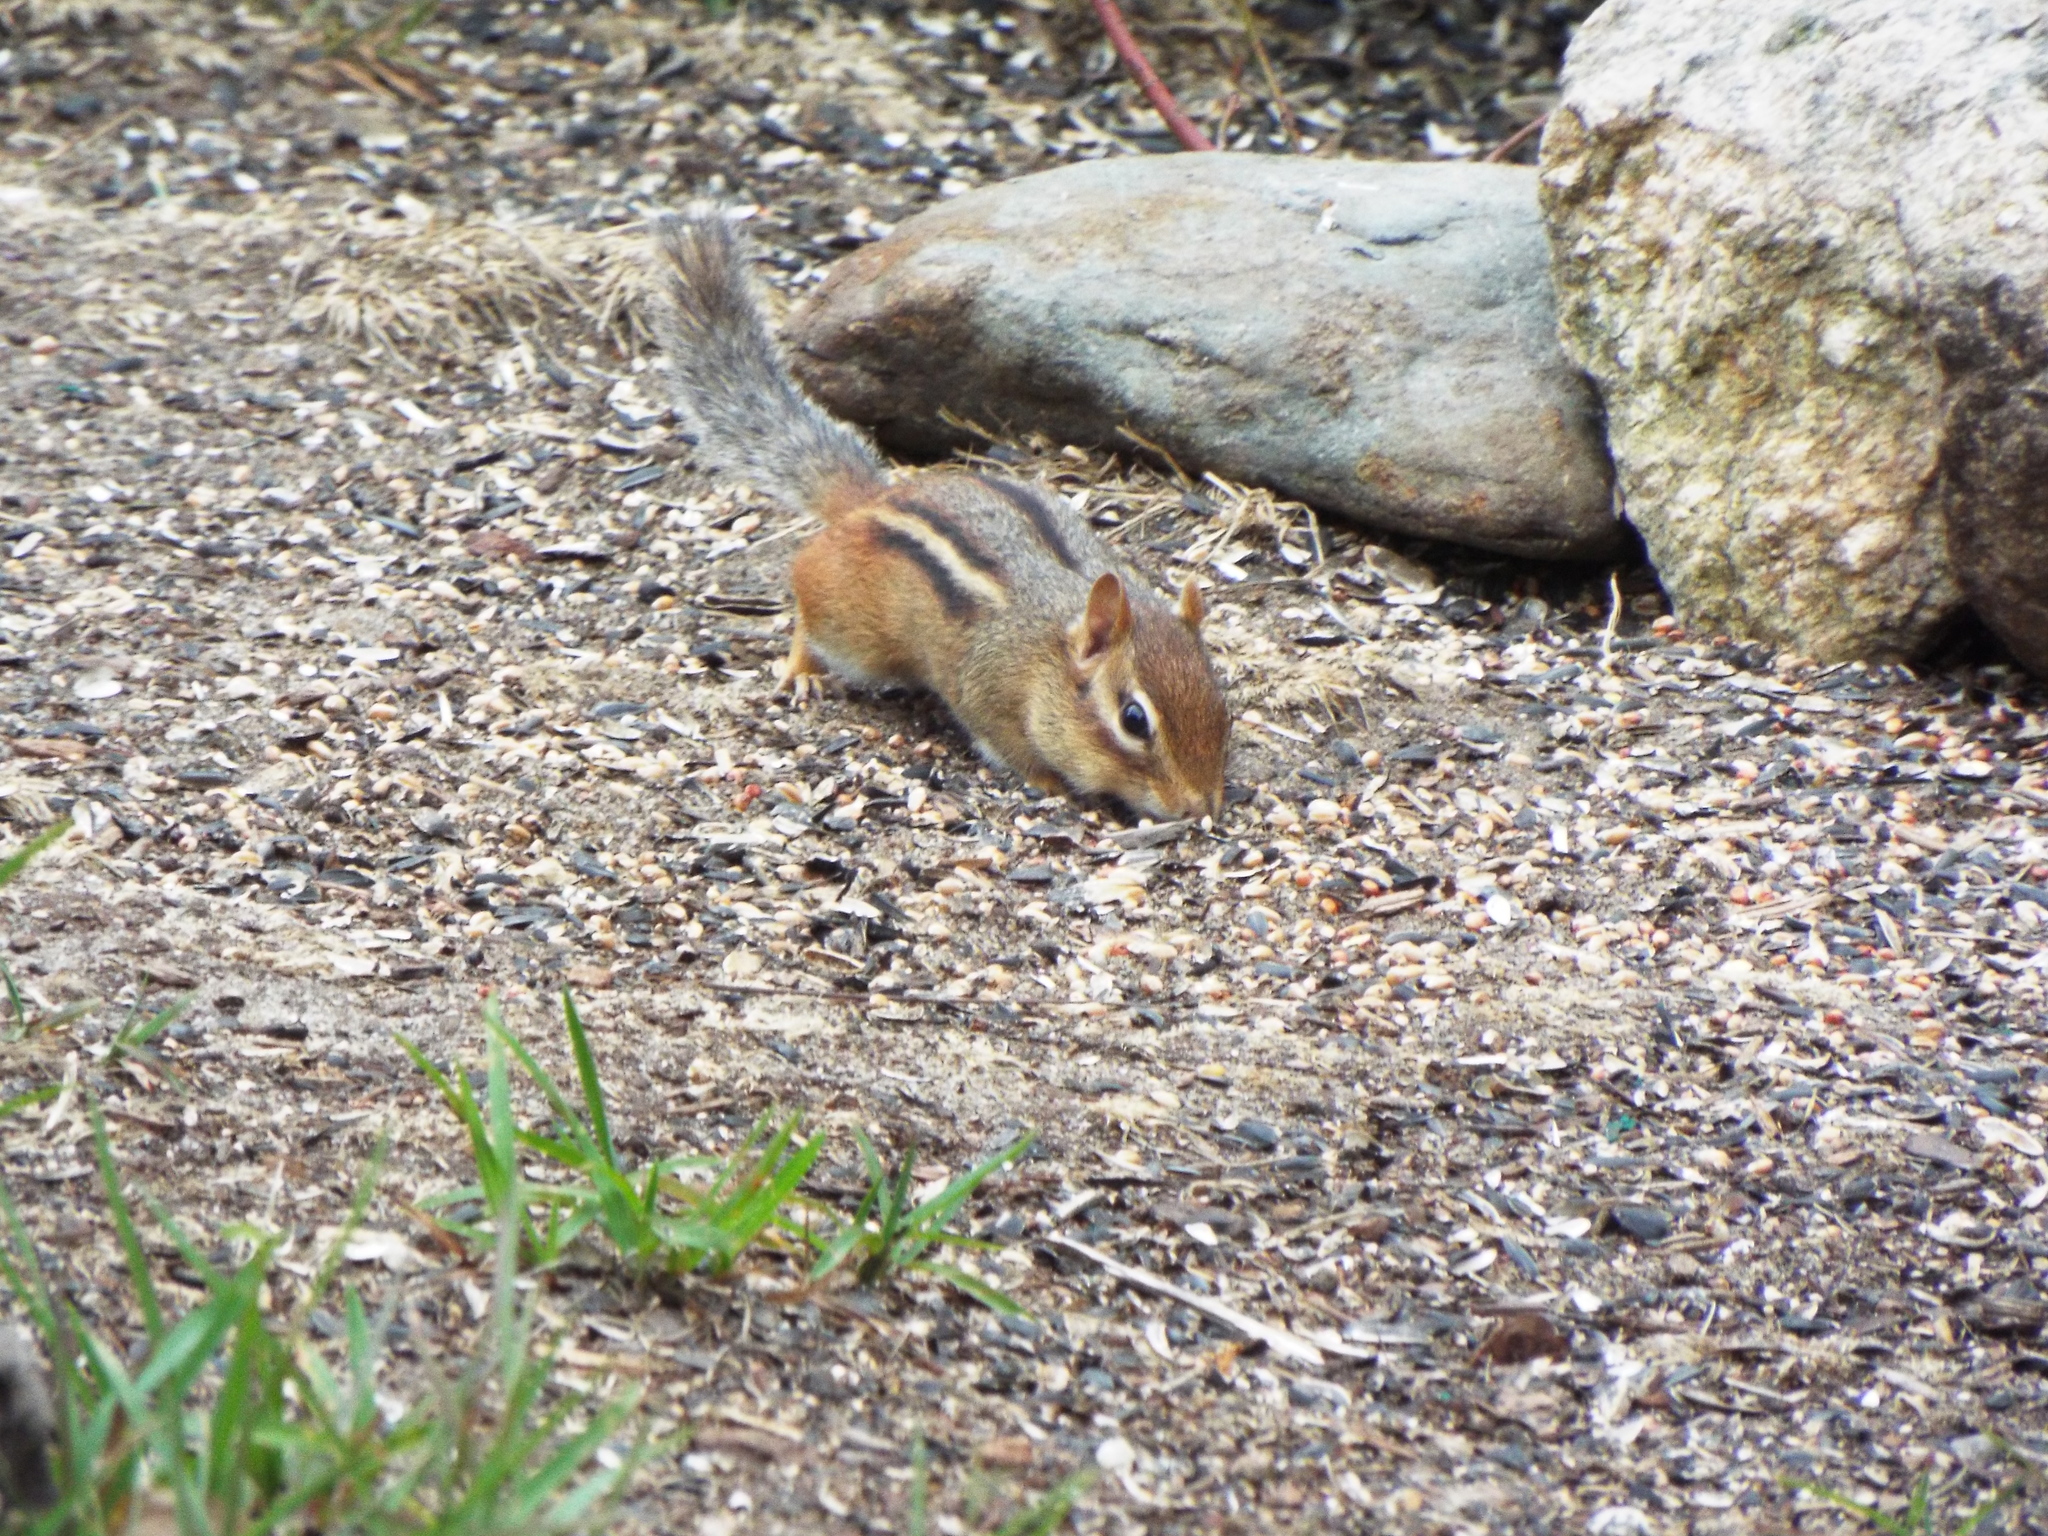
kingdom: Animalia
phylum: Chordata
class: Mammalia
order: Rodentia
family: Sciuridae
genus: Tamias
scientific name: Tamias striatus
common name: Eastern chipmunk
